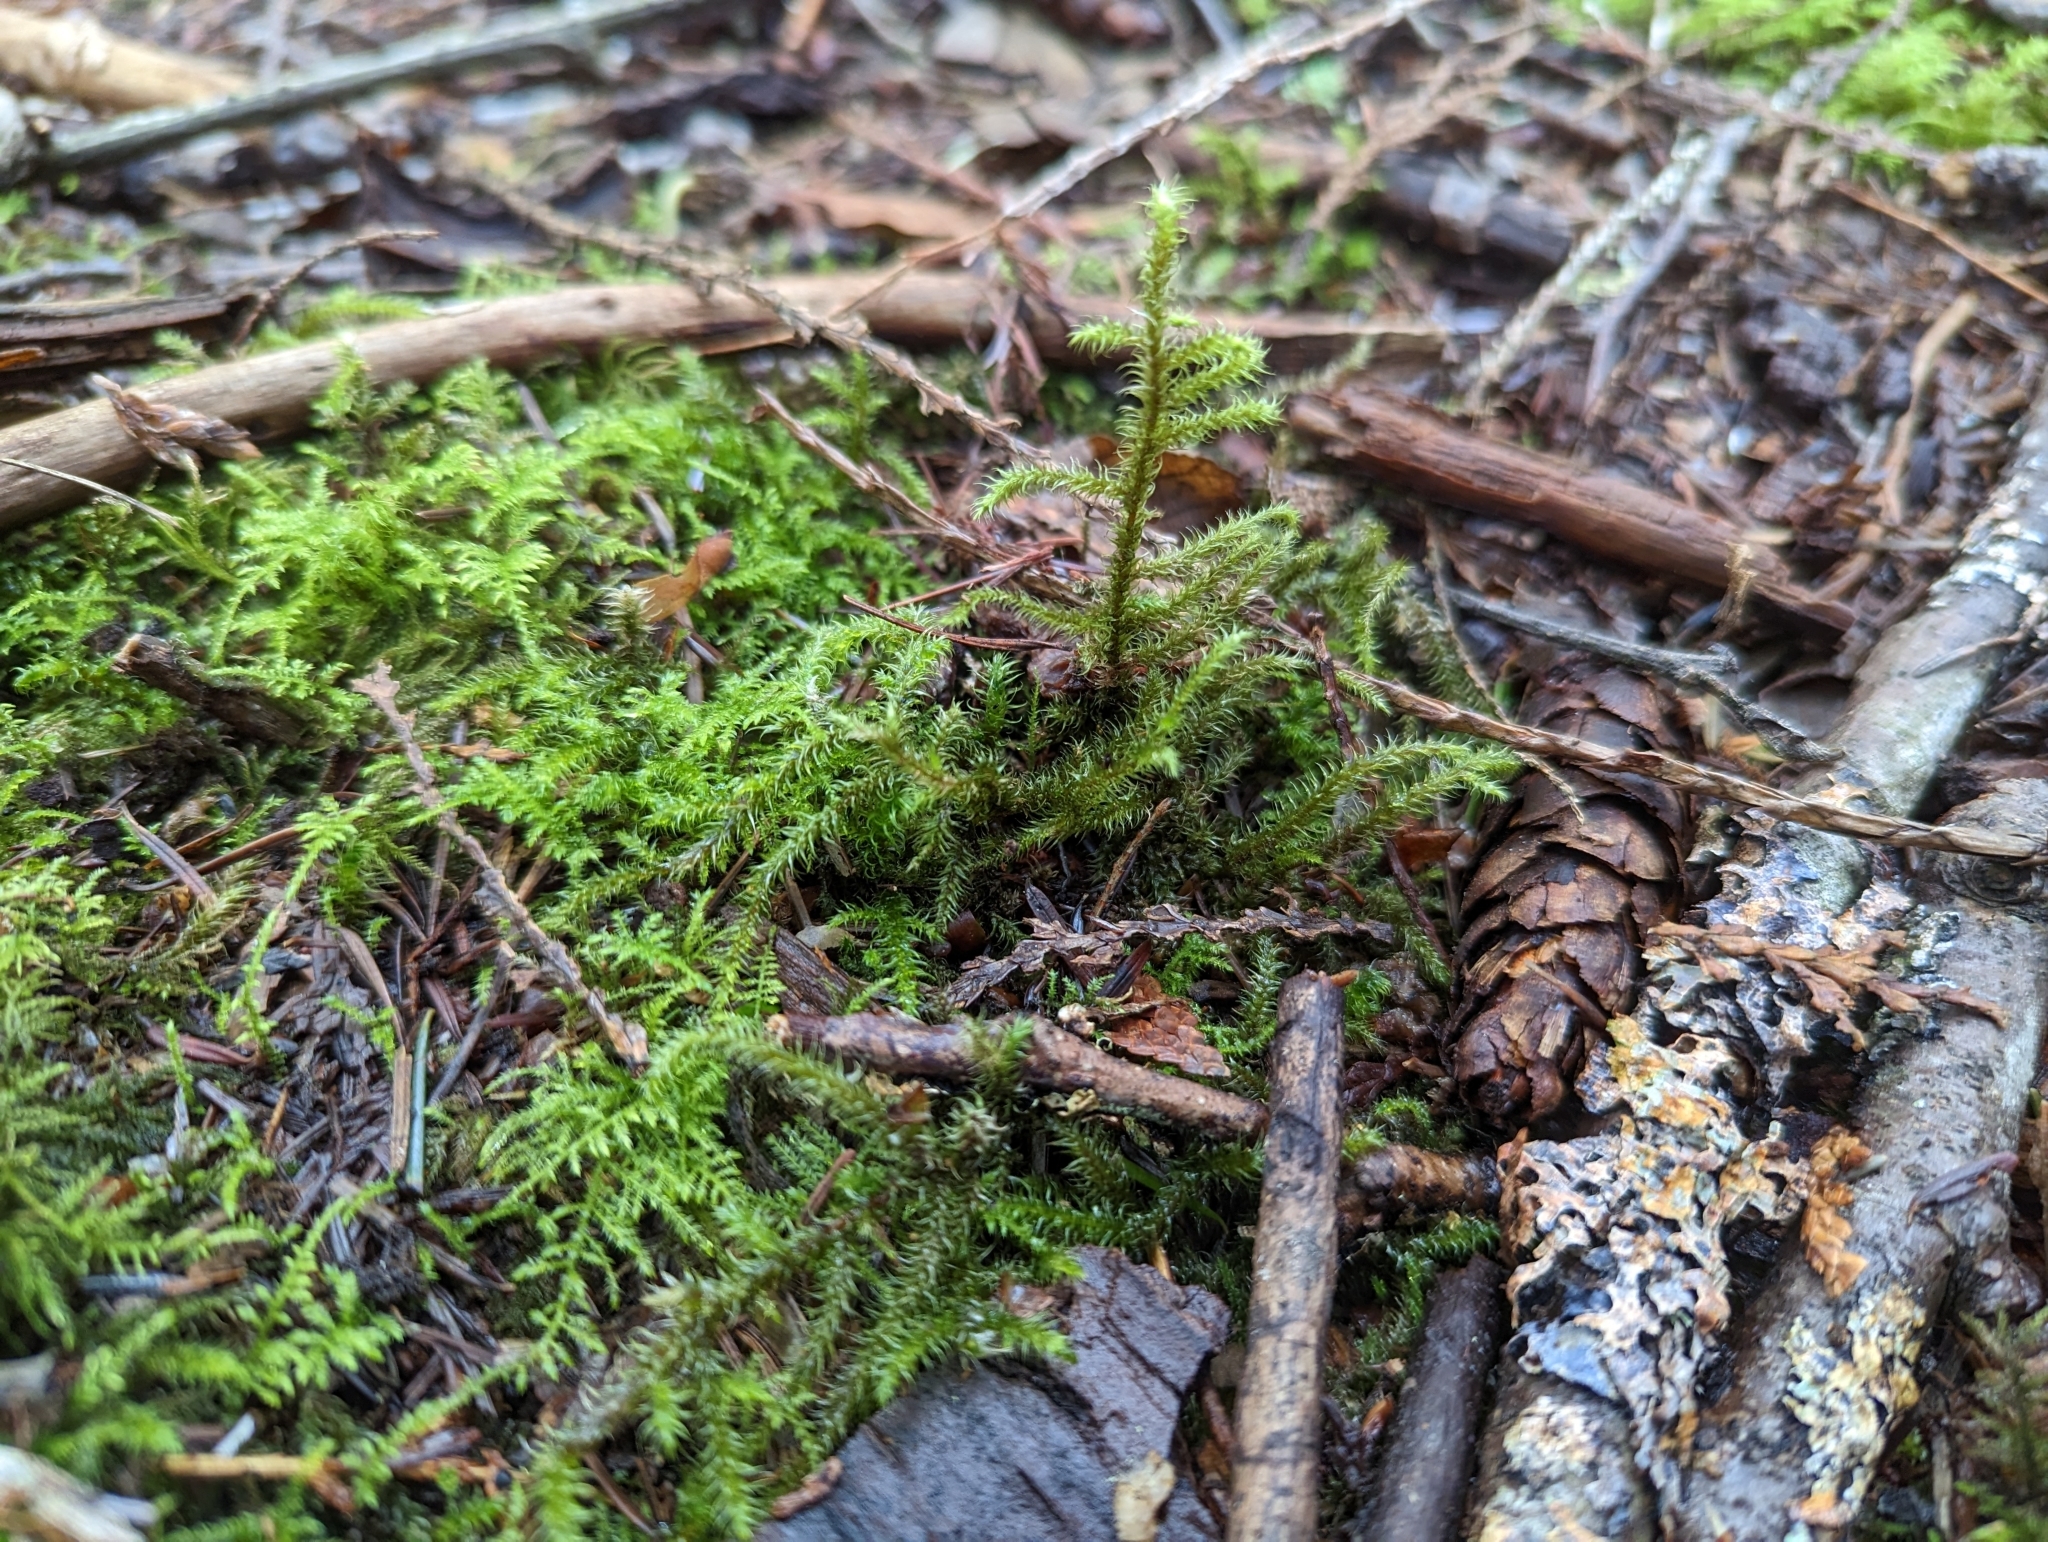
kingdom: Plantae
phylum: Bryophyta
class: Bryopsida
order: Hypnales
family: Hylocomiaceae
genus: Rhytidiadelphus
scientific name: Rhytidiadelphus loreus
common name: Lanky moss
